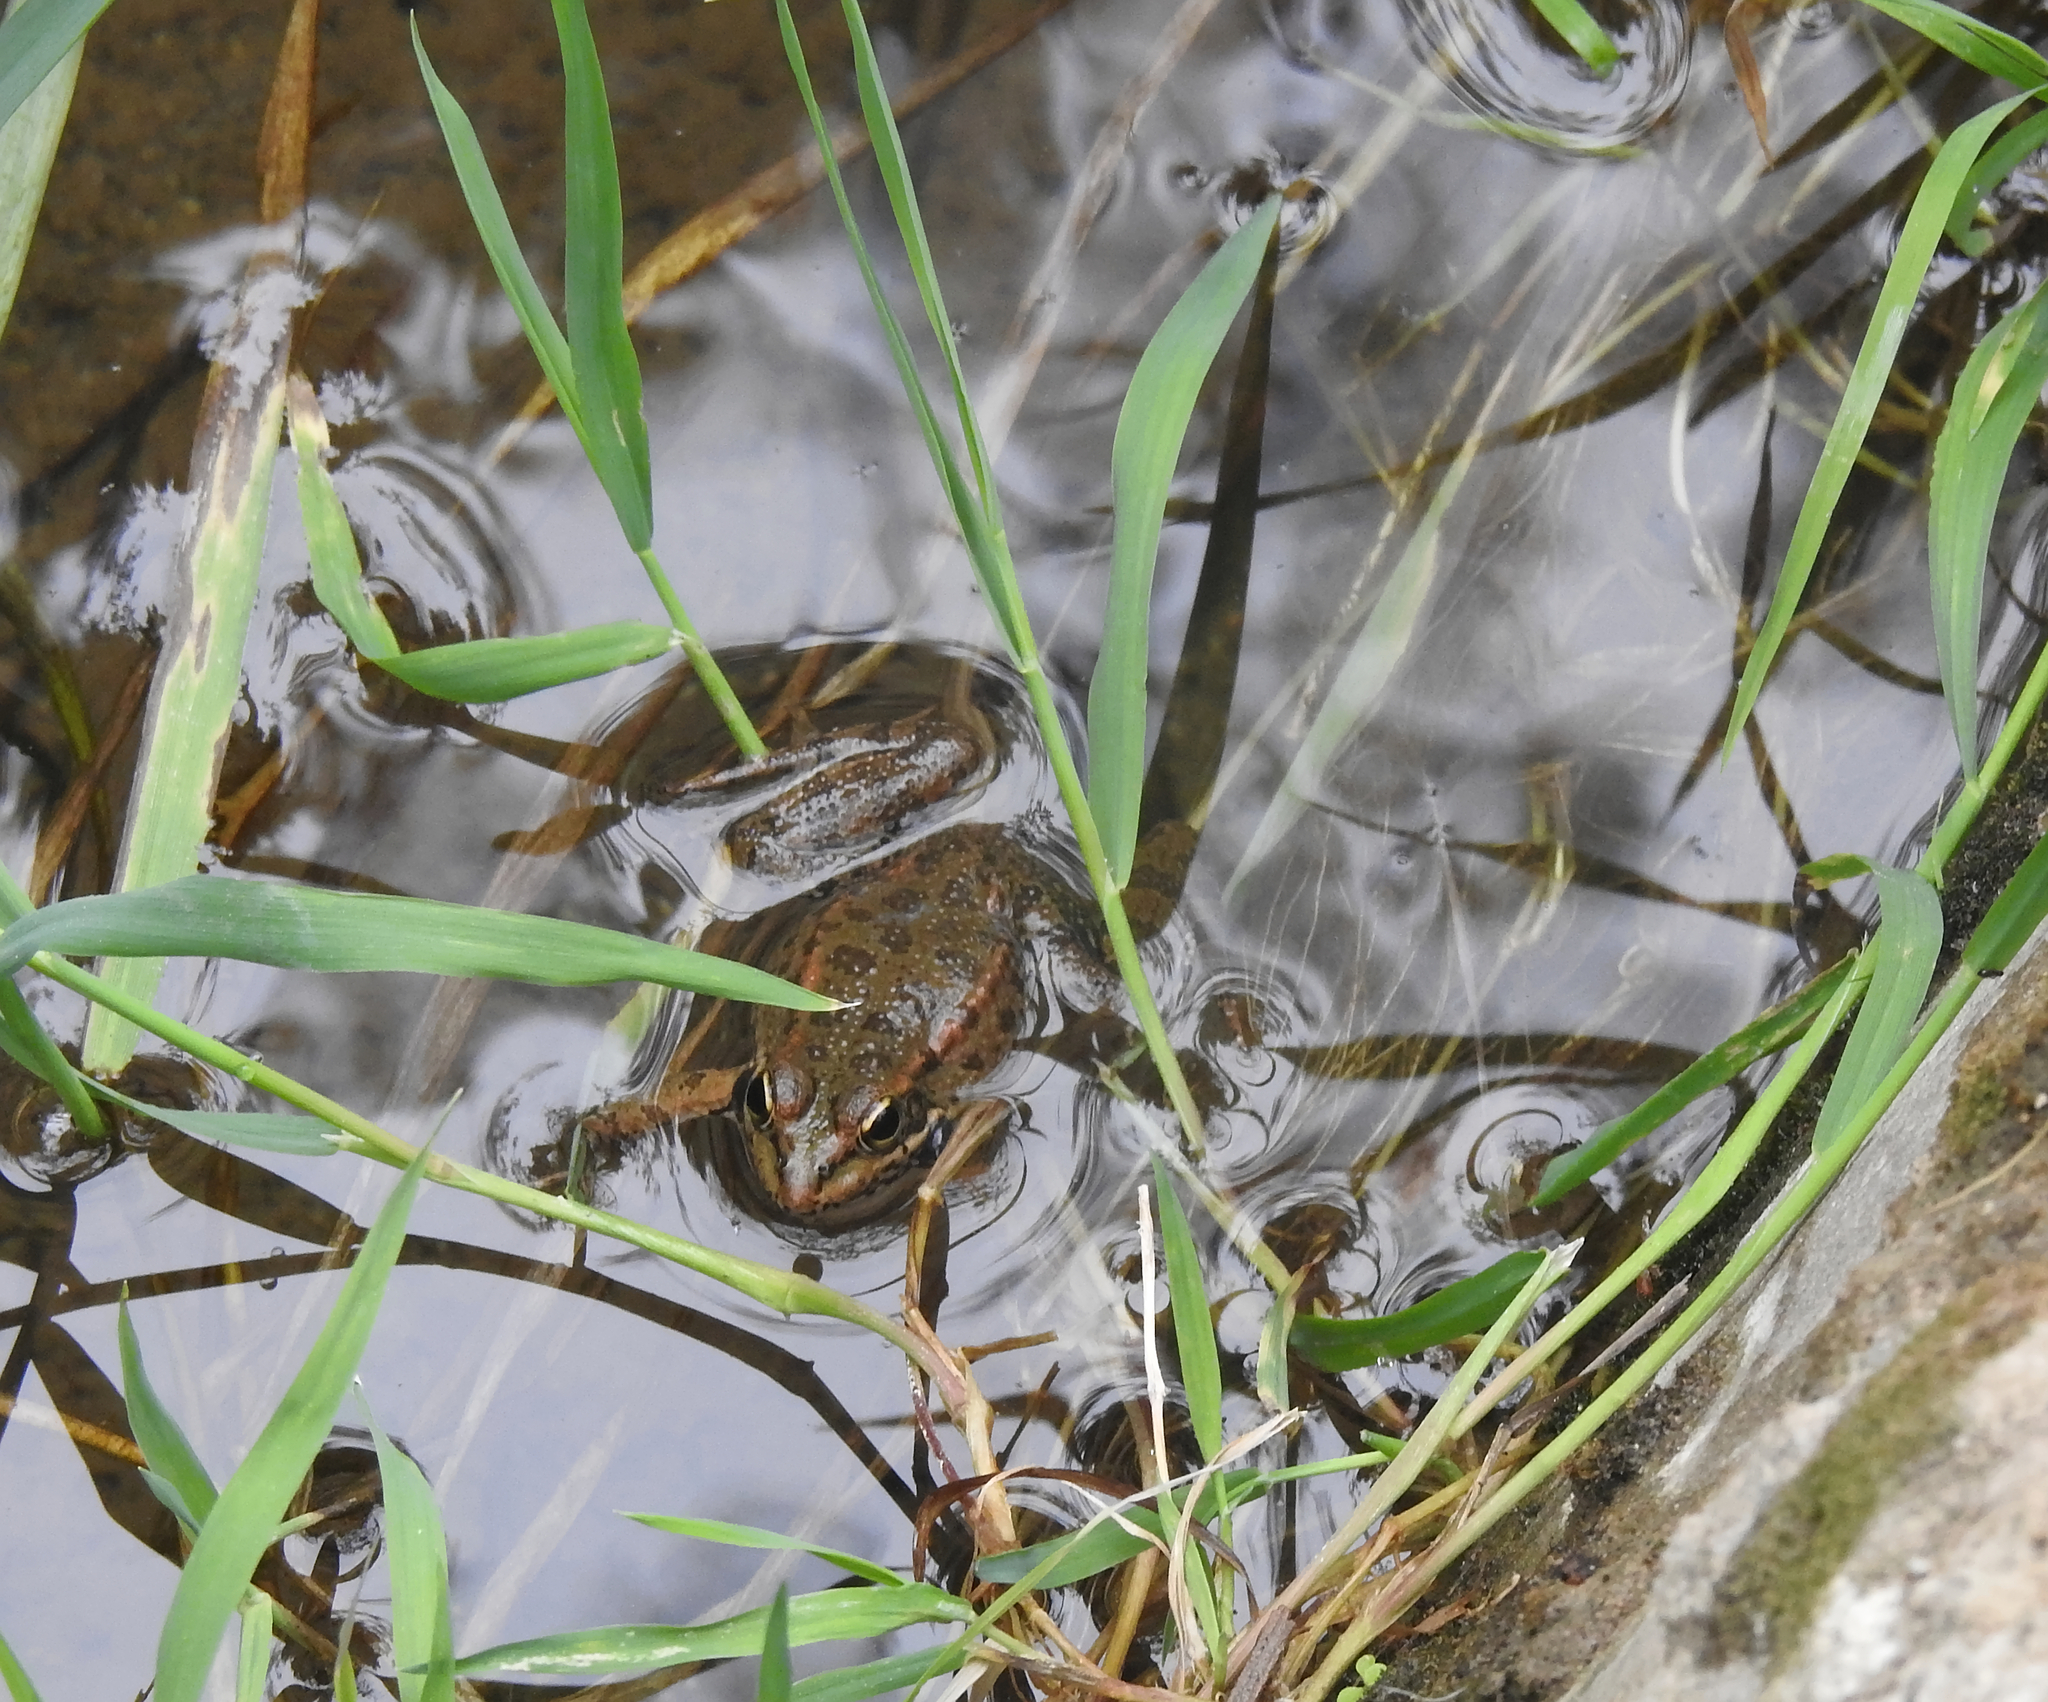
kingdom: Animalia
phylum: Chordata
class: Amphibia
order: Anura
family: Ranidae
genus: Pelophylax
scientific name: Pelophylax perezi
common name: Perez's frog
